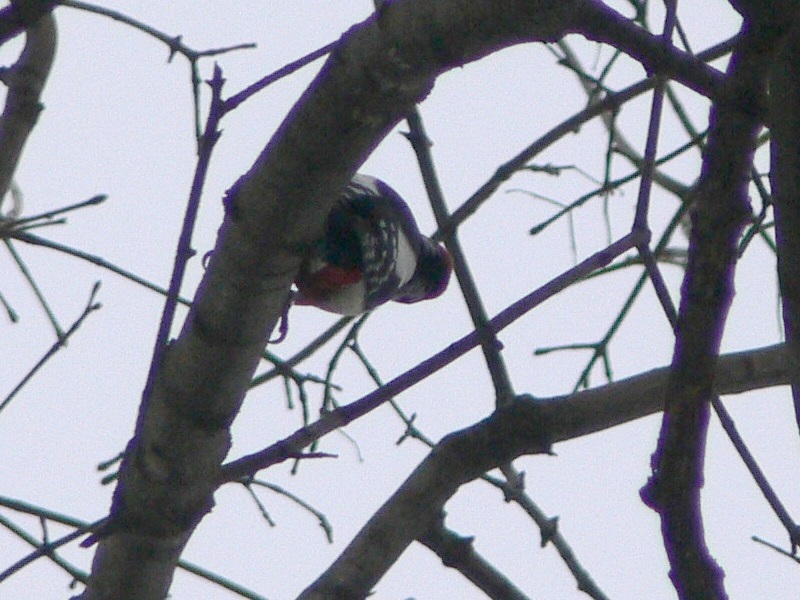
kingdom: Animalia
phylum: Chordata
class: Aves
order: Piciformes
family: Picidae
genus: Dendrocopos
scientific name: Dendrocopos major
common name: Great spotted woodpecker
